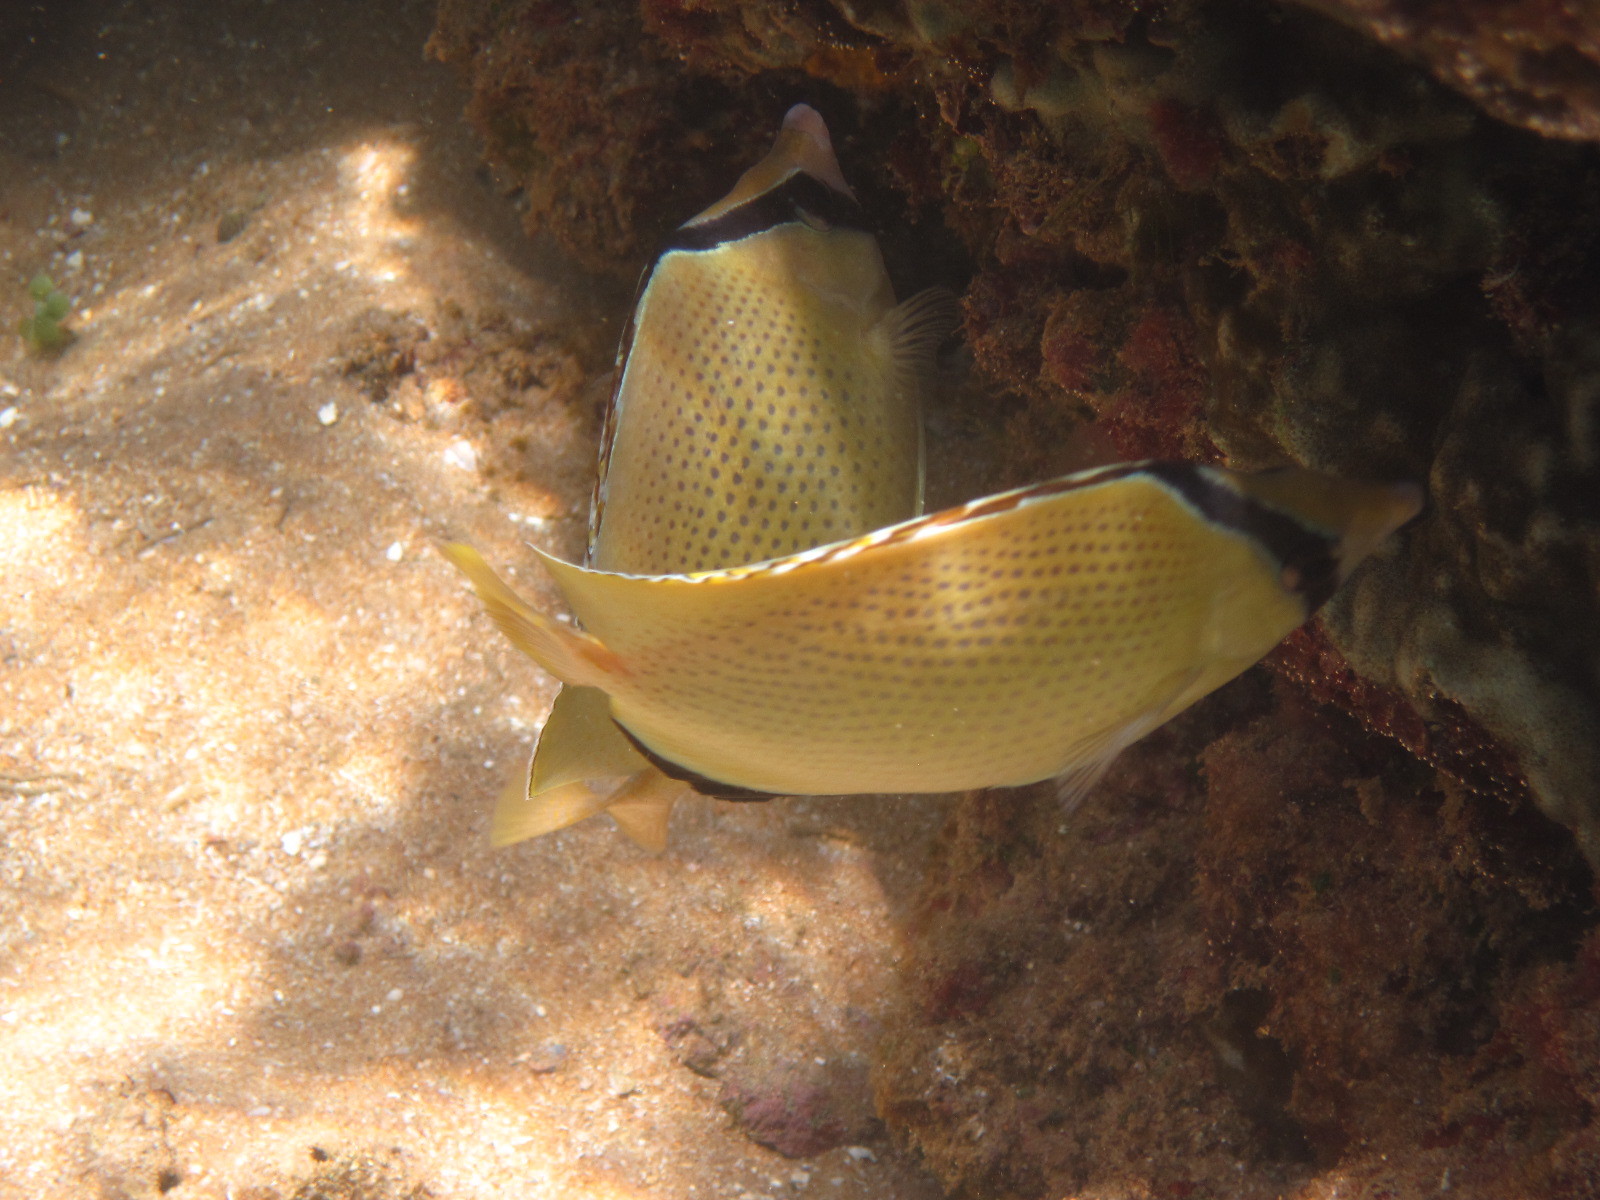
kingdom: Animalia
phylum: Chordata
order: Perciformes
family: Chaetodontidae
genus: Chaetodon
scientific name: Chaetodon citrinellus
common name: Speckled butterflyfish
